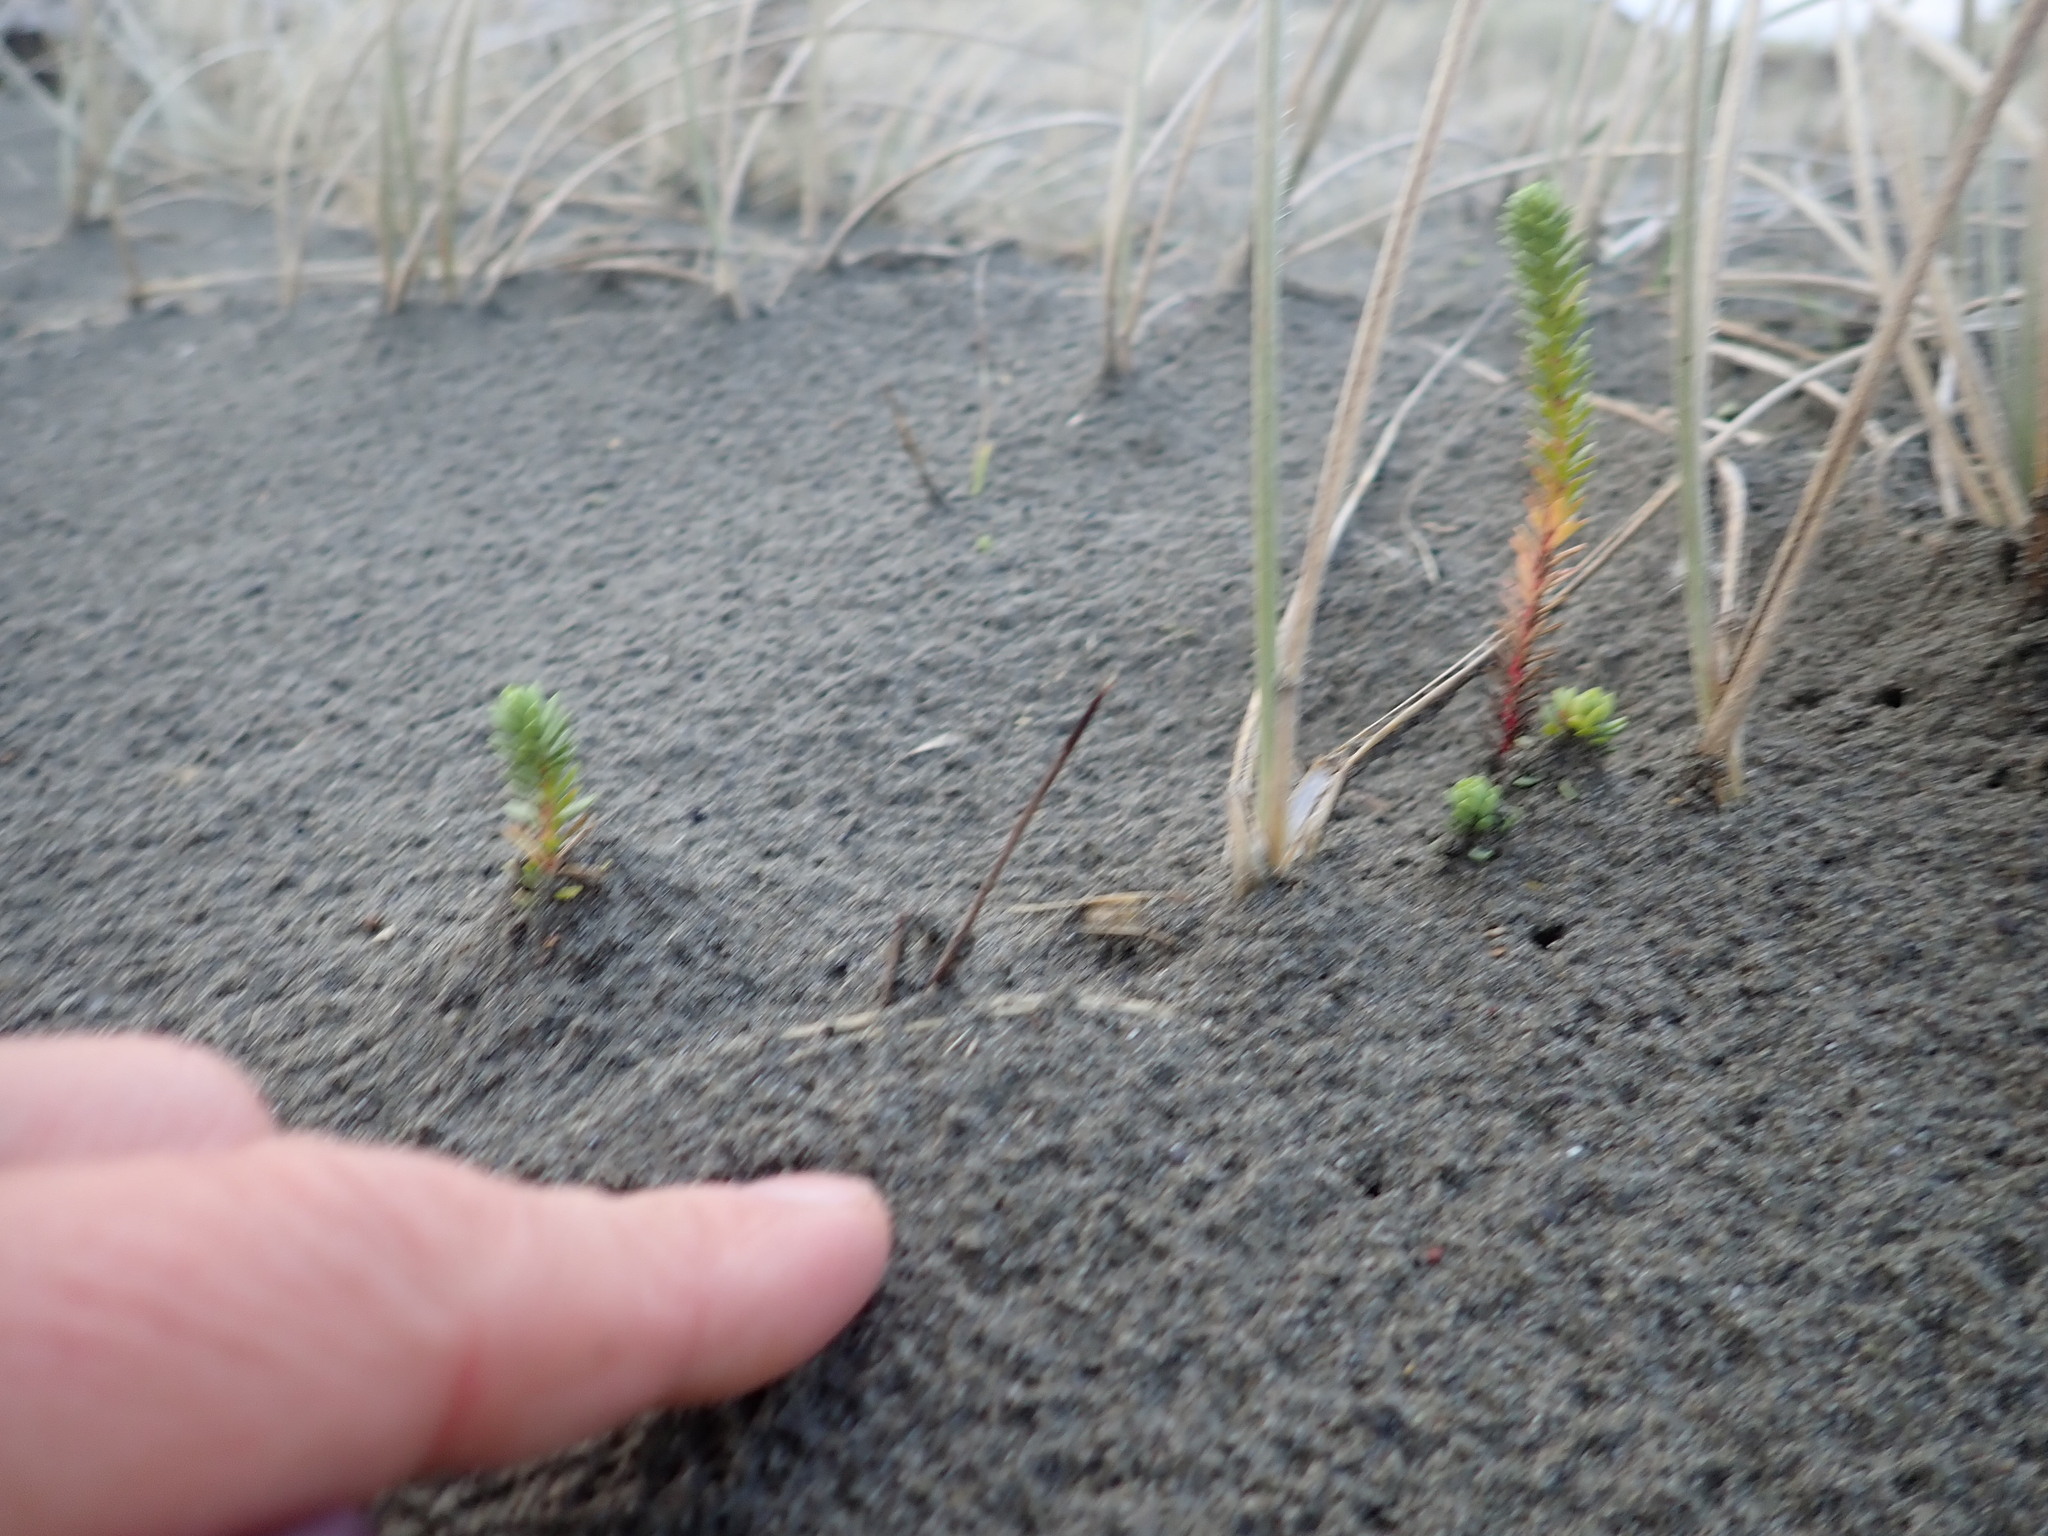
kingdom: Plantae
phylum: Tracheophyta
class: Magnoliopsida
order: Malpighiales
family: Euphorbiaceae
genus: Euphorbia
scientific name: Euphorbia paralias
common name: Sea spurge
